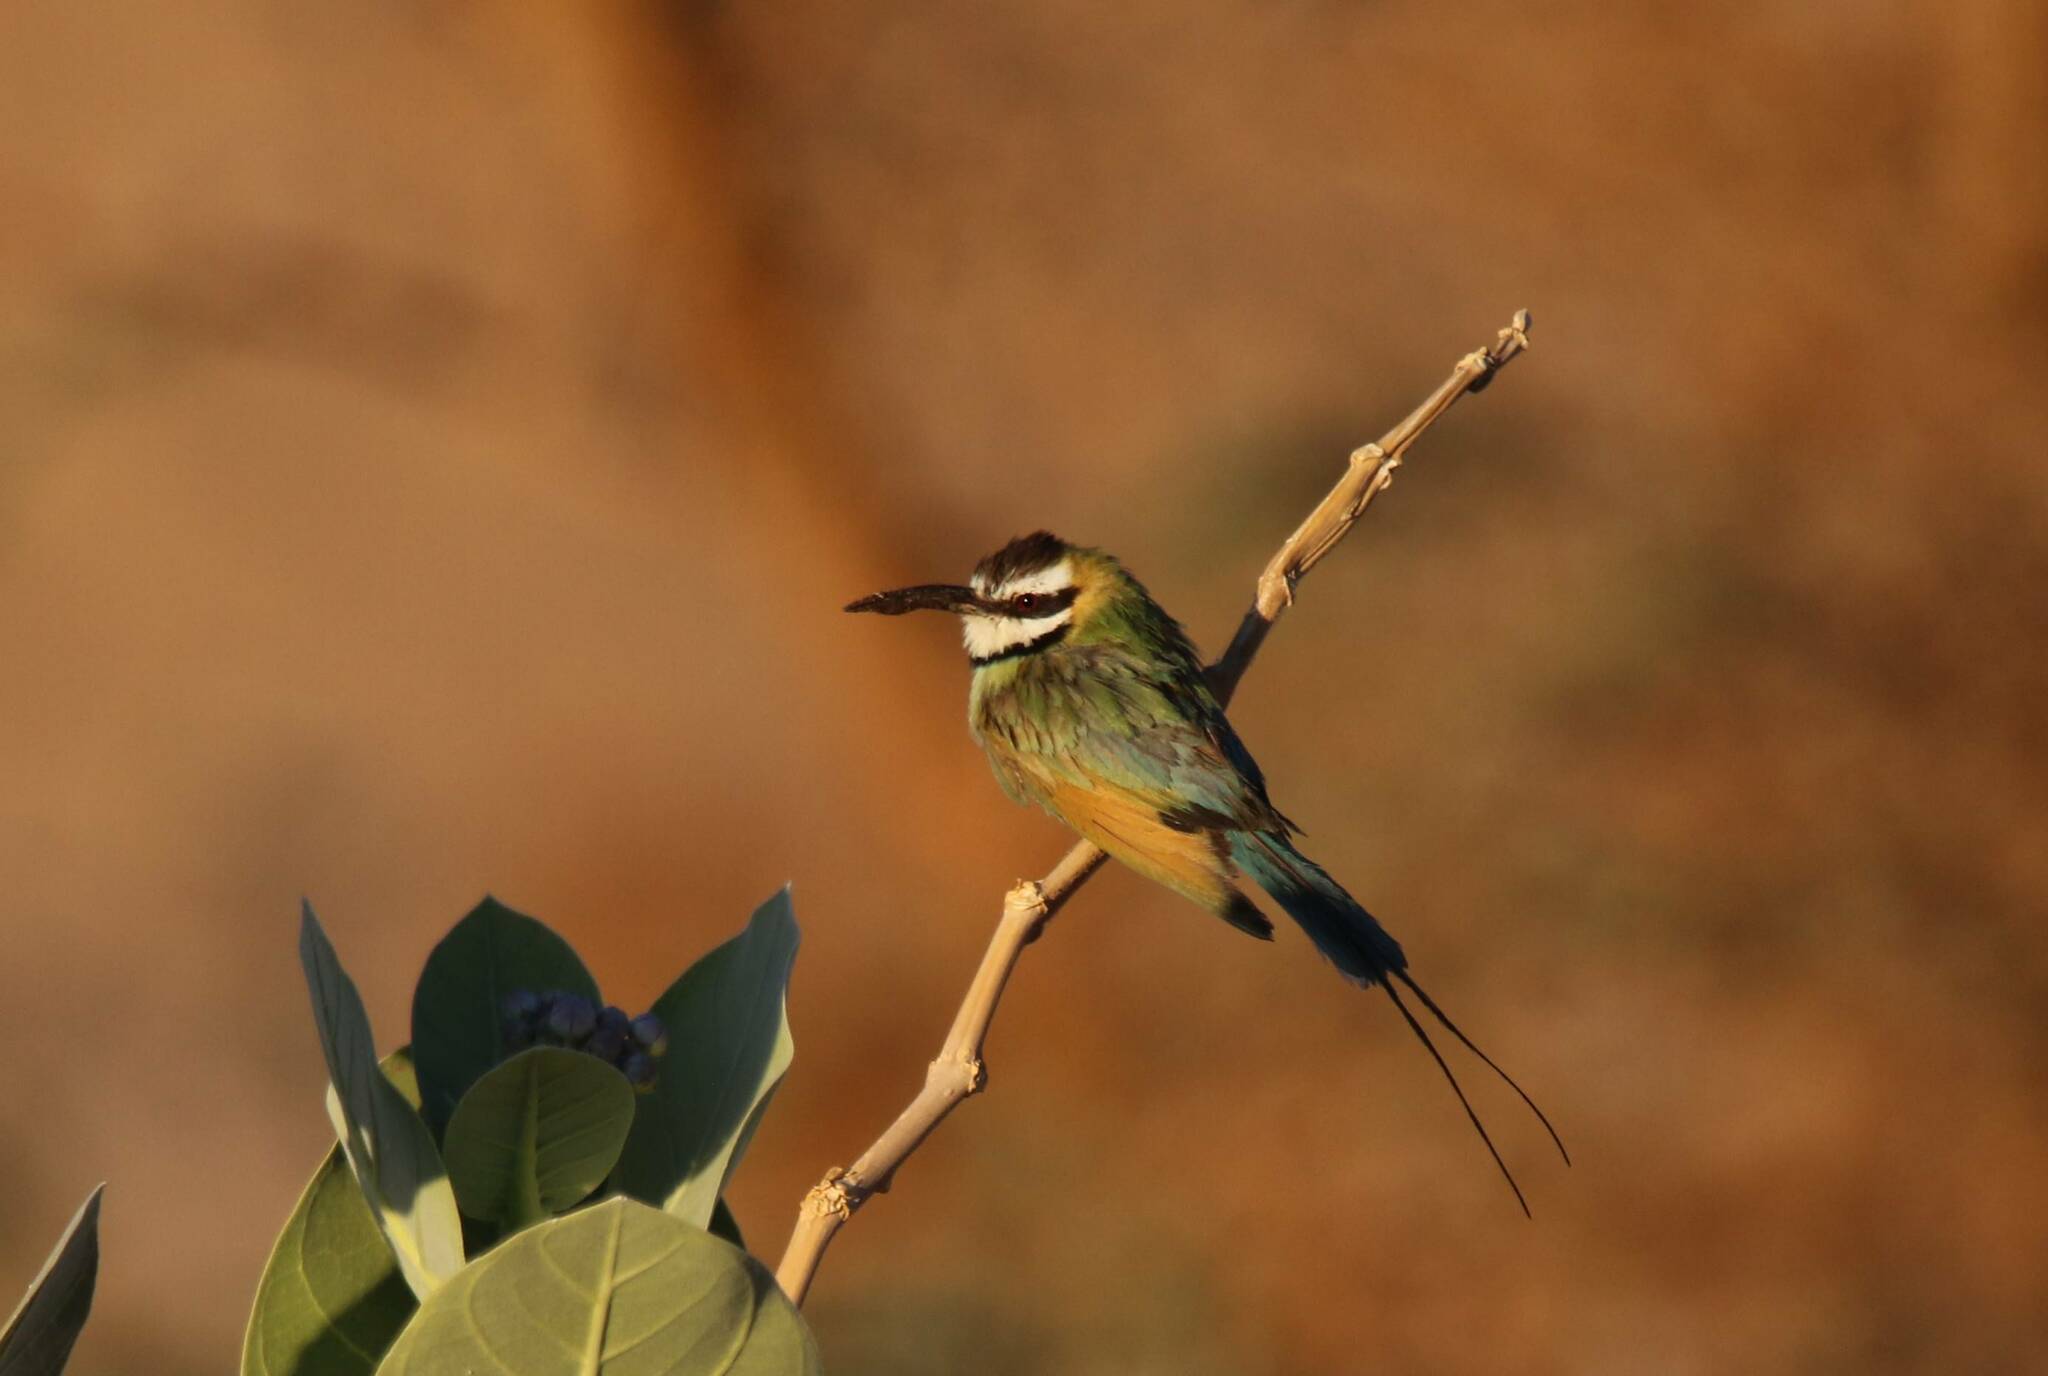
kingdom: Animalia
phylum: Chordata
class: Aves
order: Coraciiformes
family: Meropidae
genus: Merops
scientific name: Merops albicollis
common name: White-throated bee-eater
